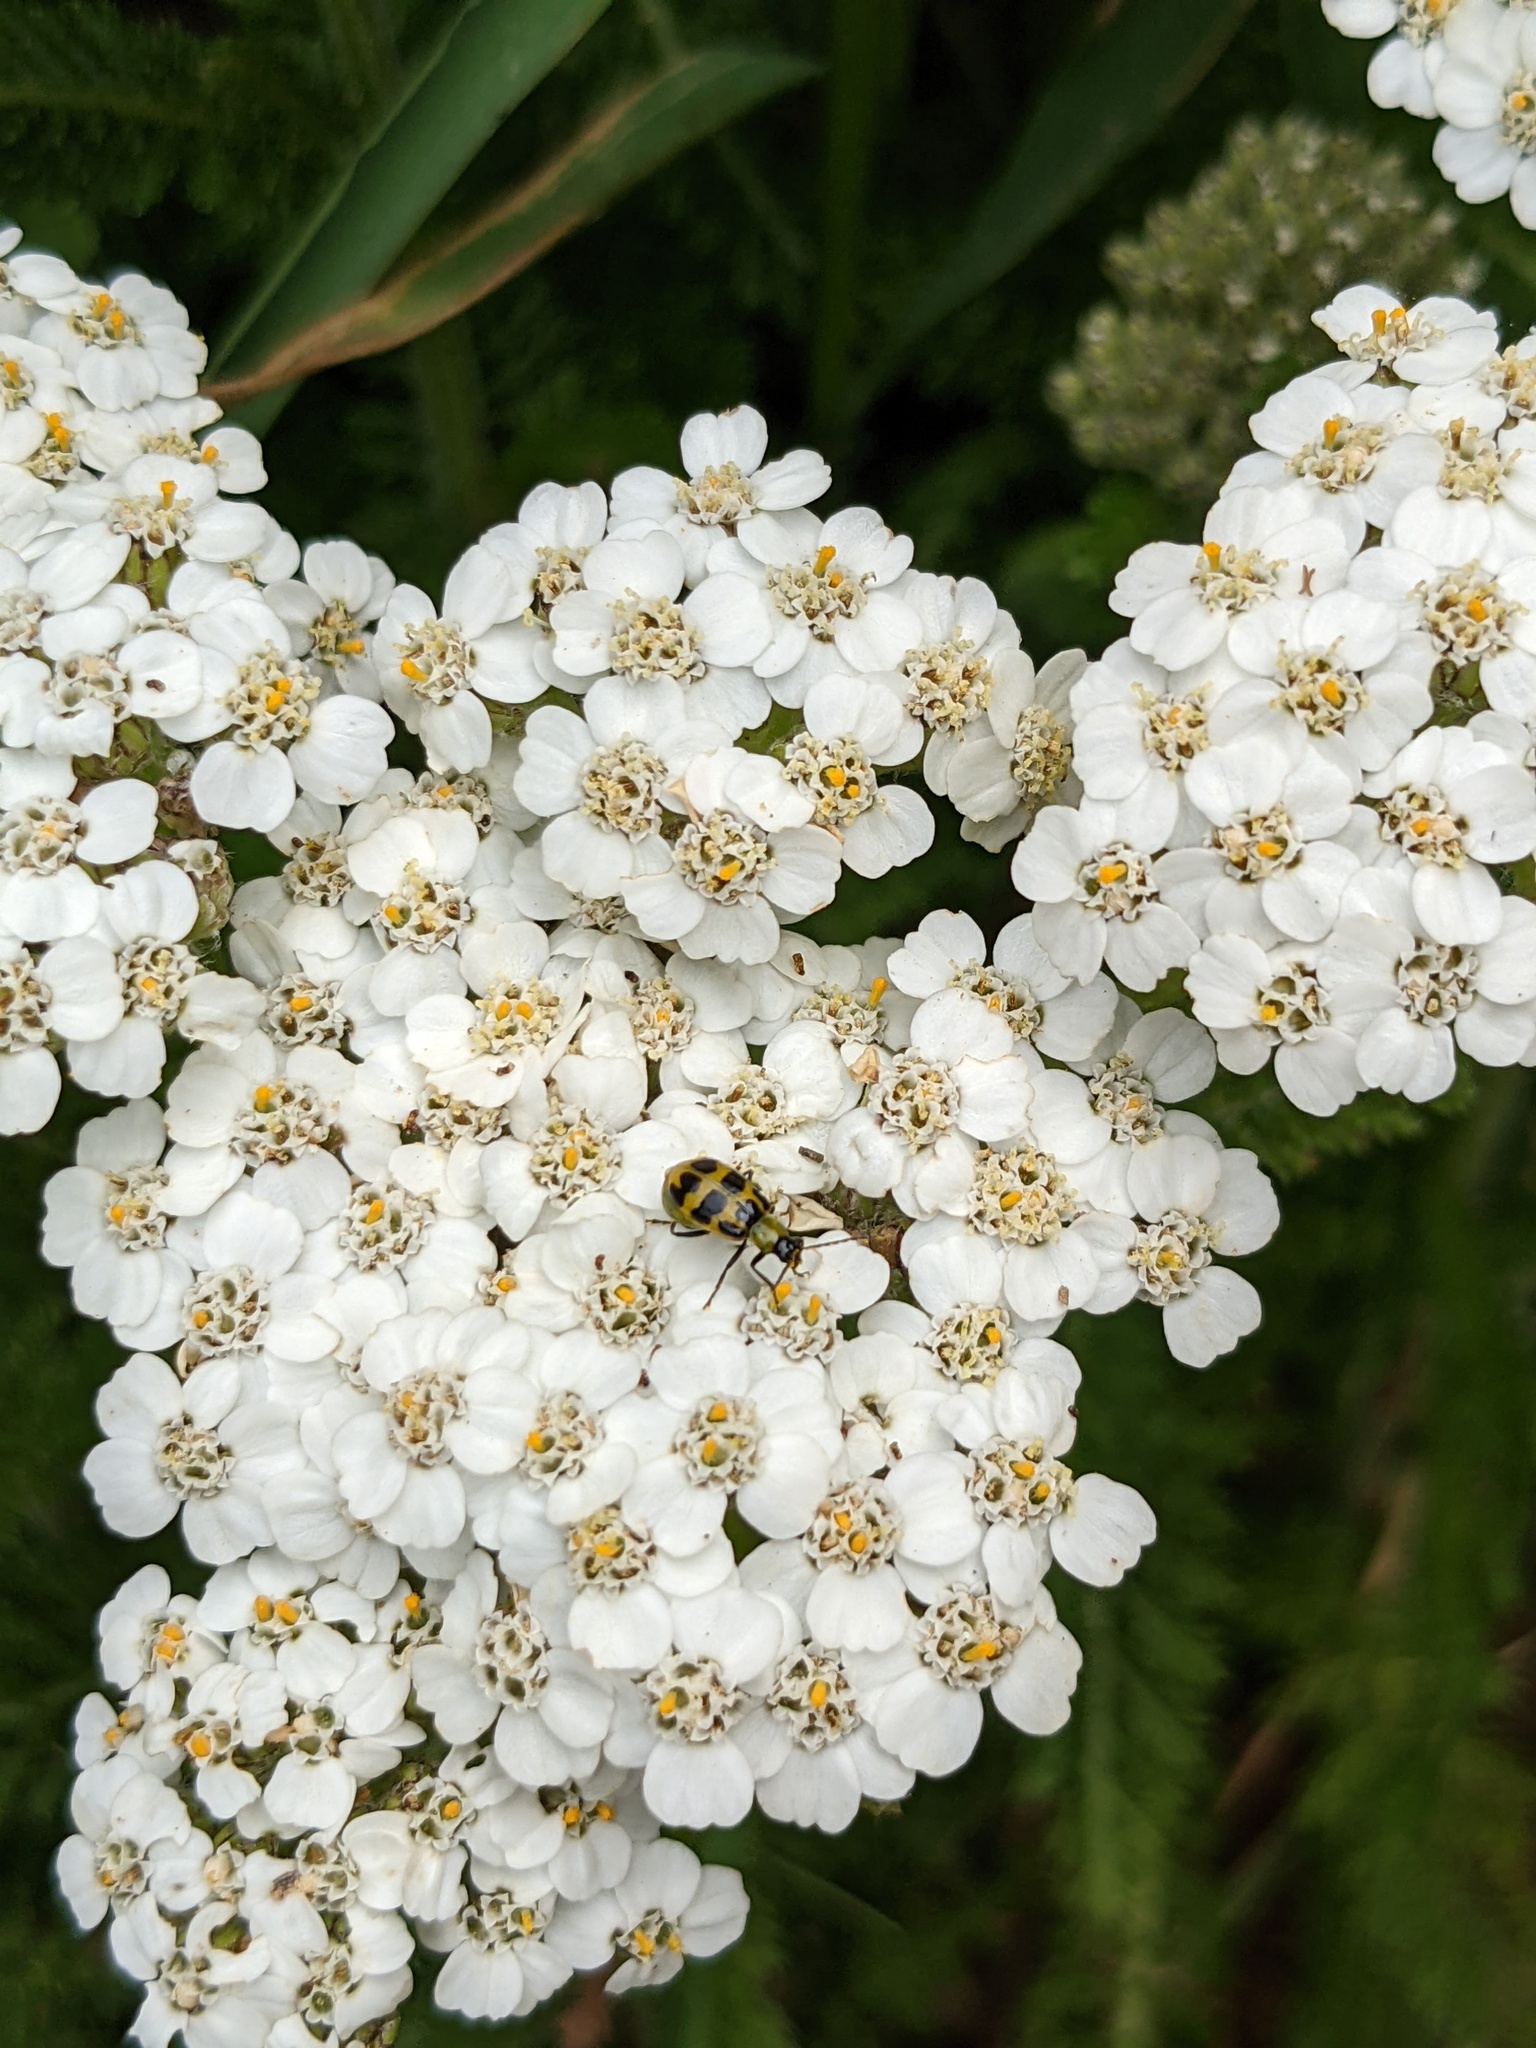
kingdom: Animalia
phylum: Arthropoda
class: Insecta
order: Coleoptera
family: Chrysomelidae
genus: Diabrotica
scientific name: Diabrotica undecimpunctata
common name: Spotted cucumber beetle
